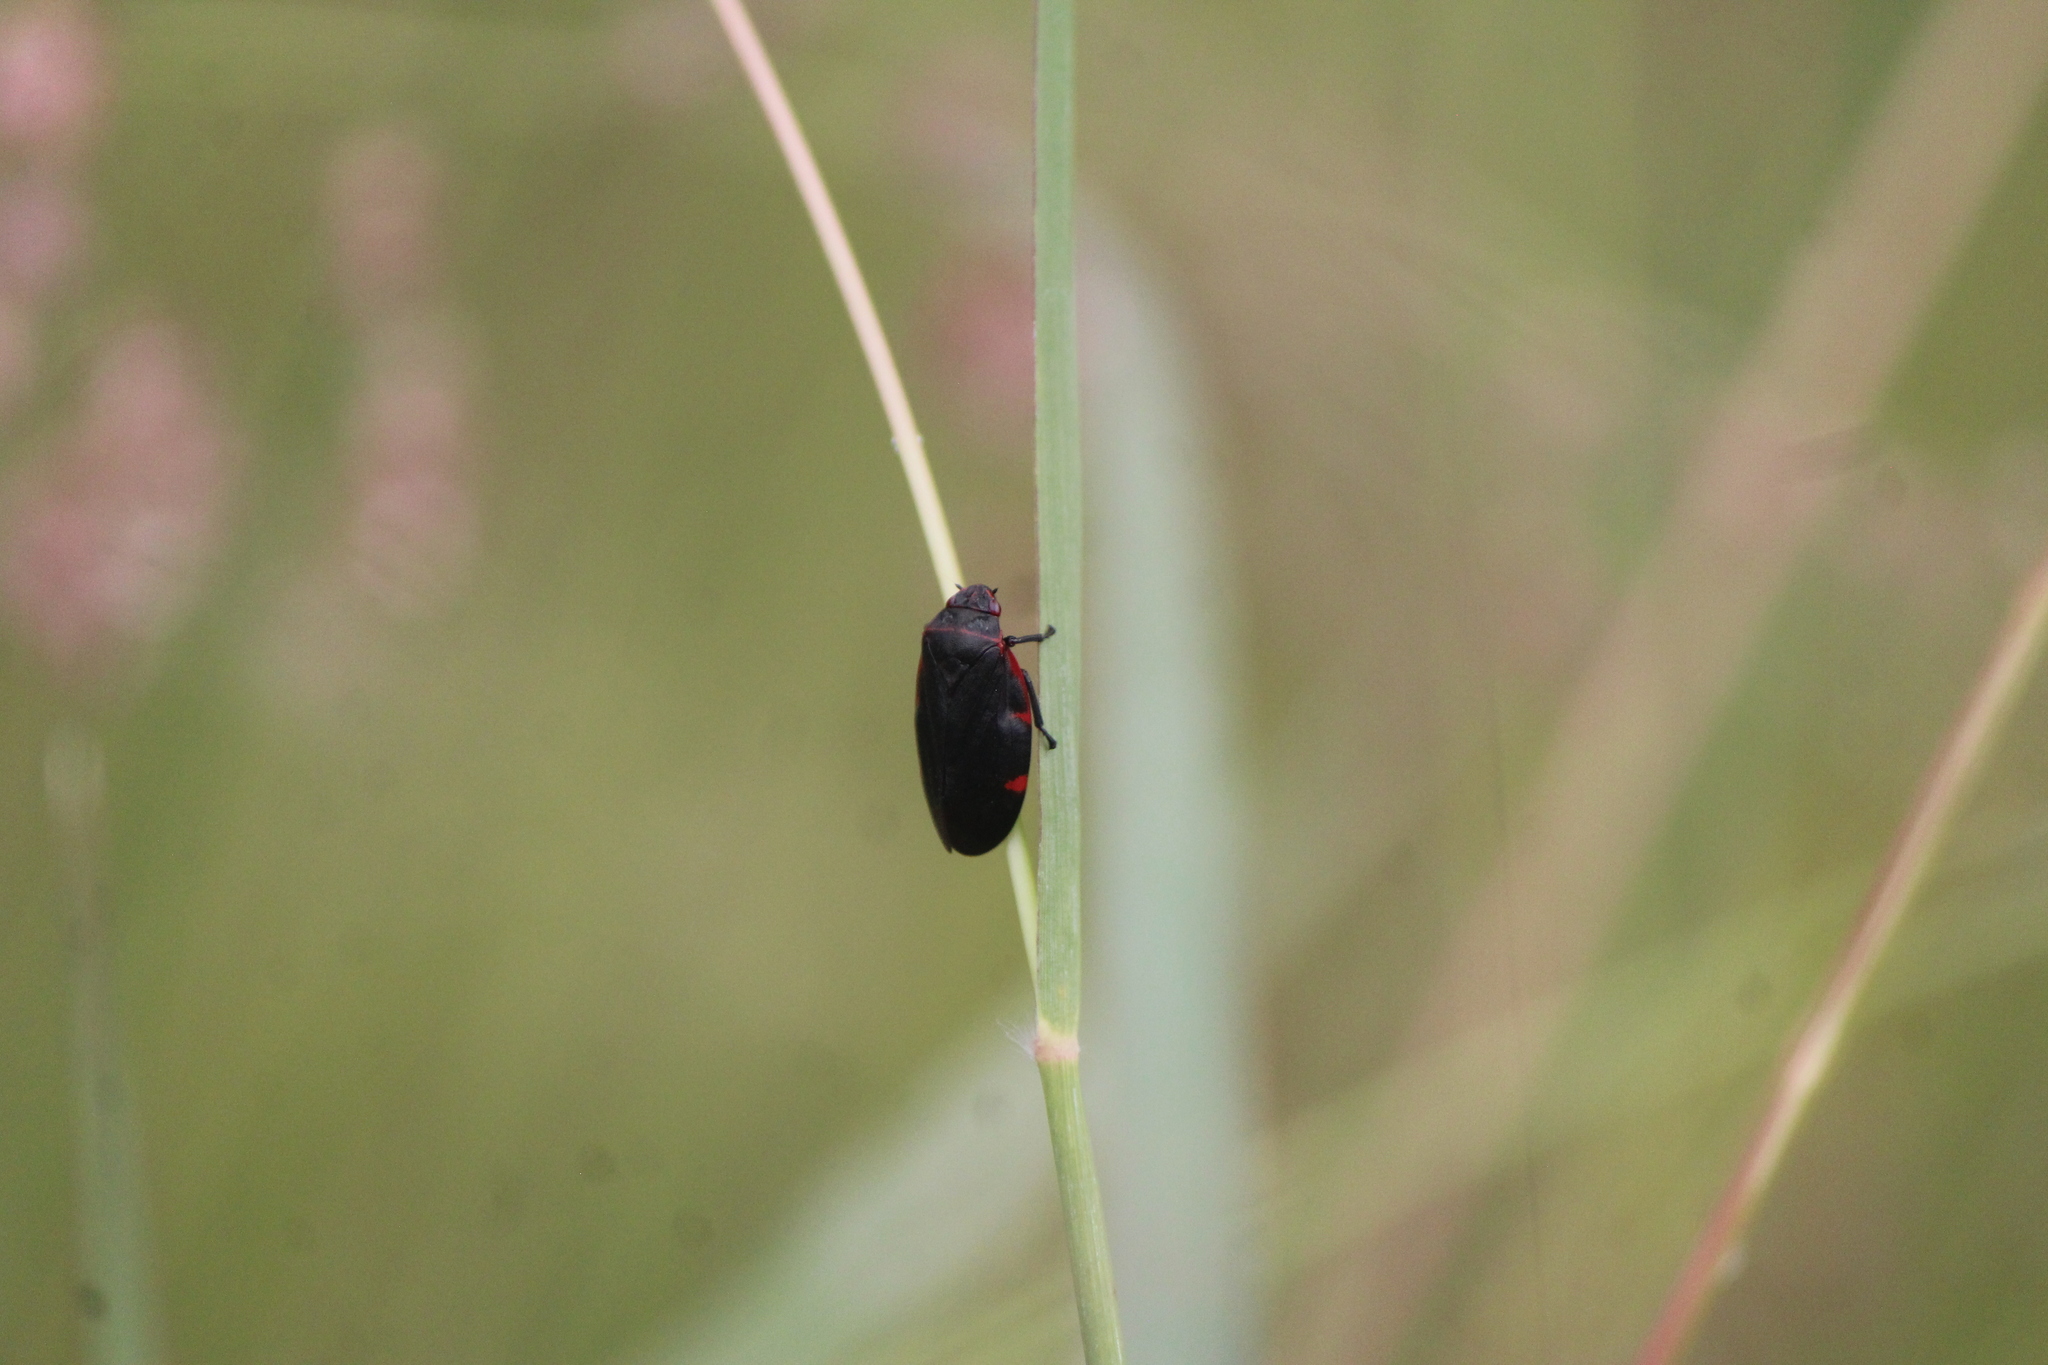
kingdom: Animalia
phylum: Arthropoda
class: Insecta
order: Hemiptera
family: Cercopidae
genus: Prosapia
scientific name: Prosapia
